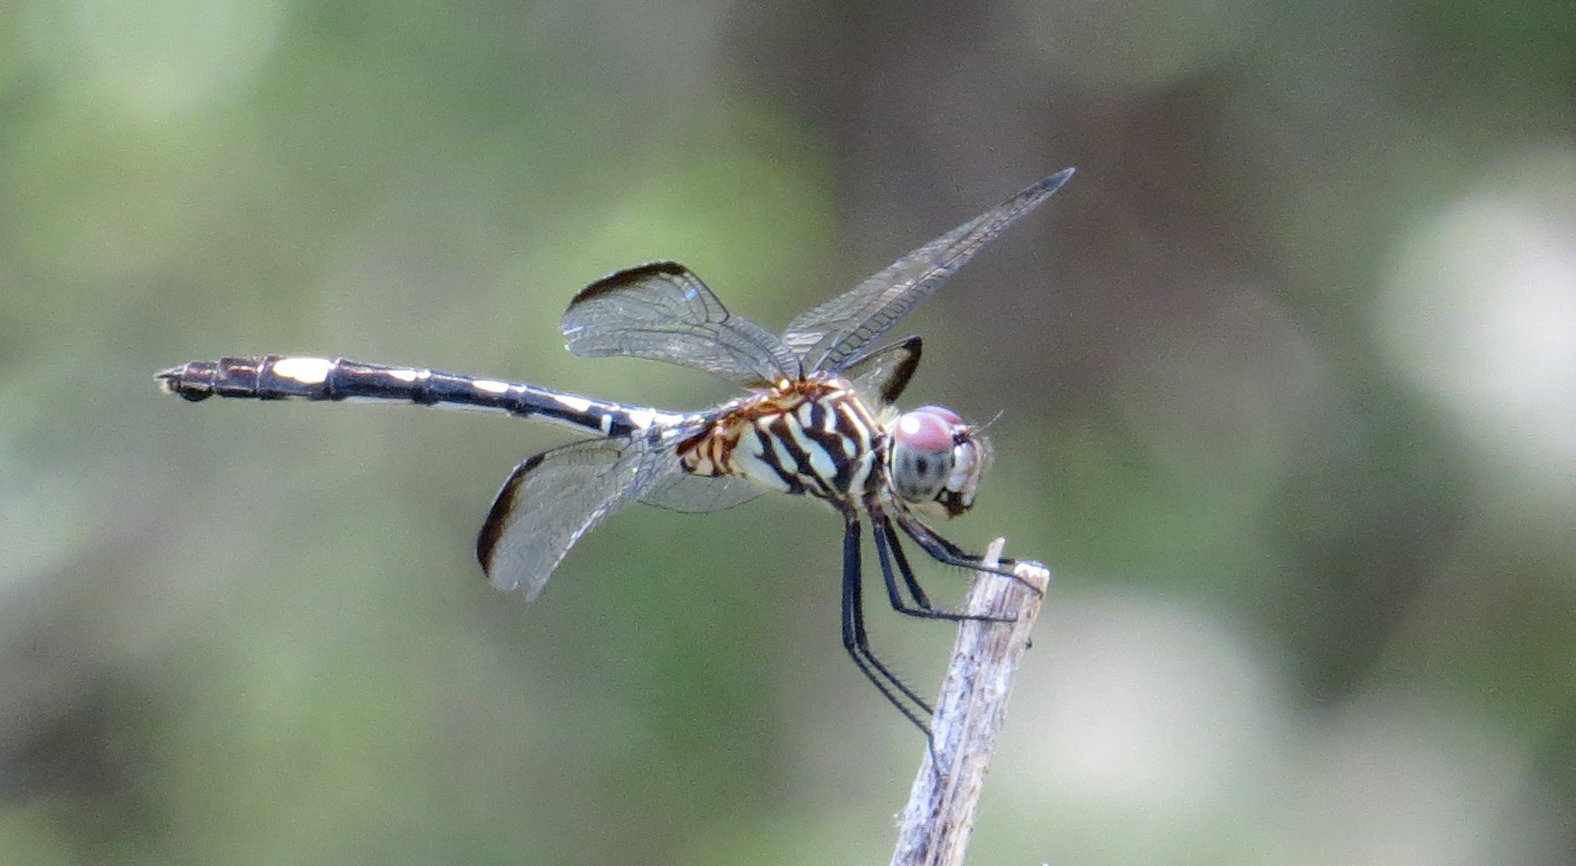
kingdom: Animalia
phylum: Arthropoda
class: Insecta
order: Odonata
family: Libellulidae
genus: Dythemis
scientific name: Dythemis velox
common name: Swift setwing
